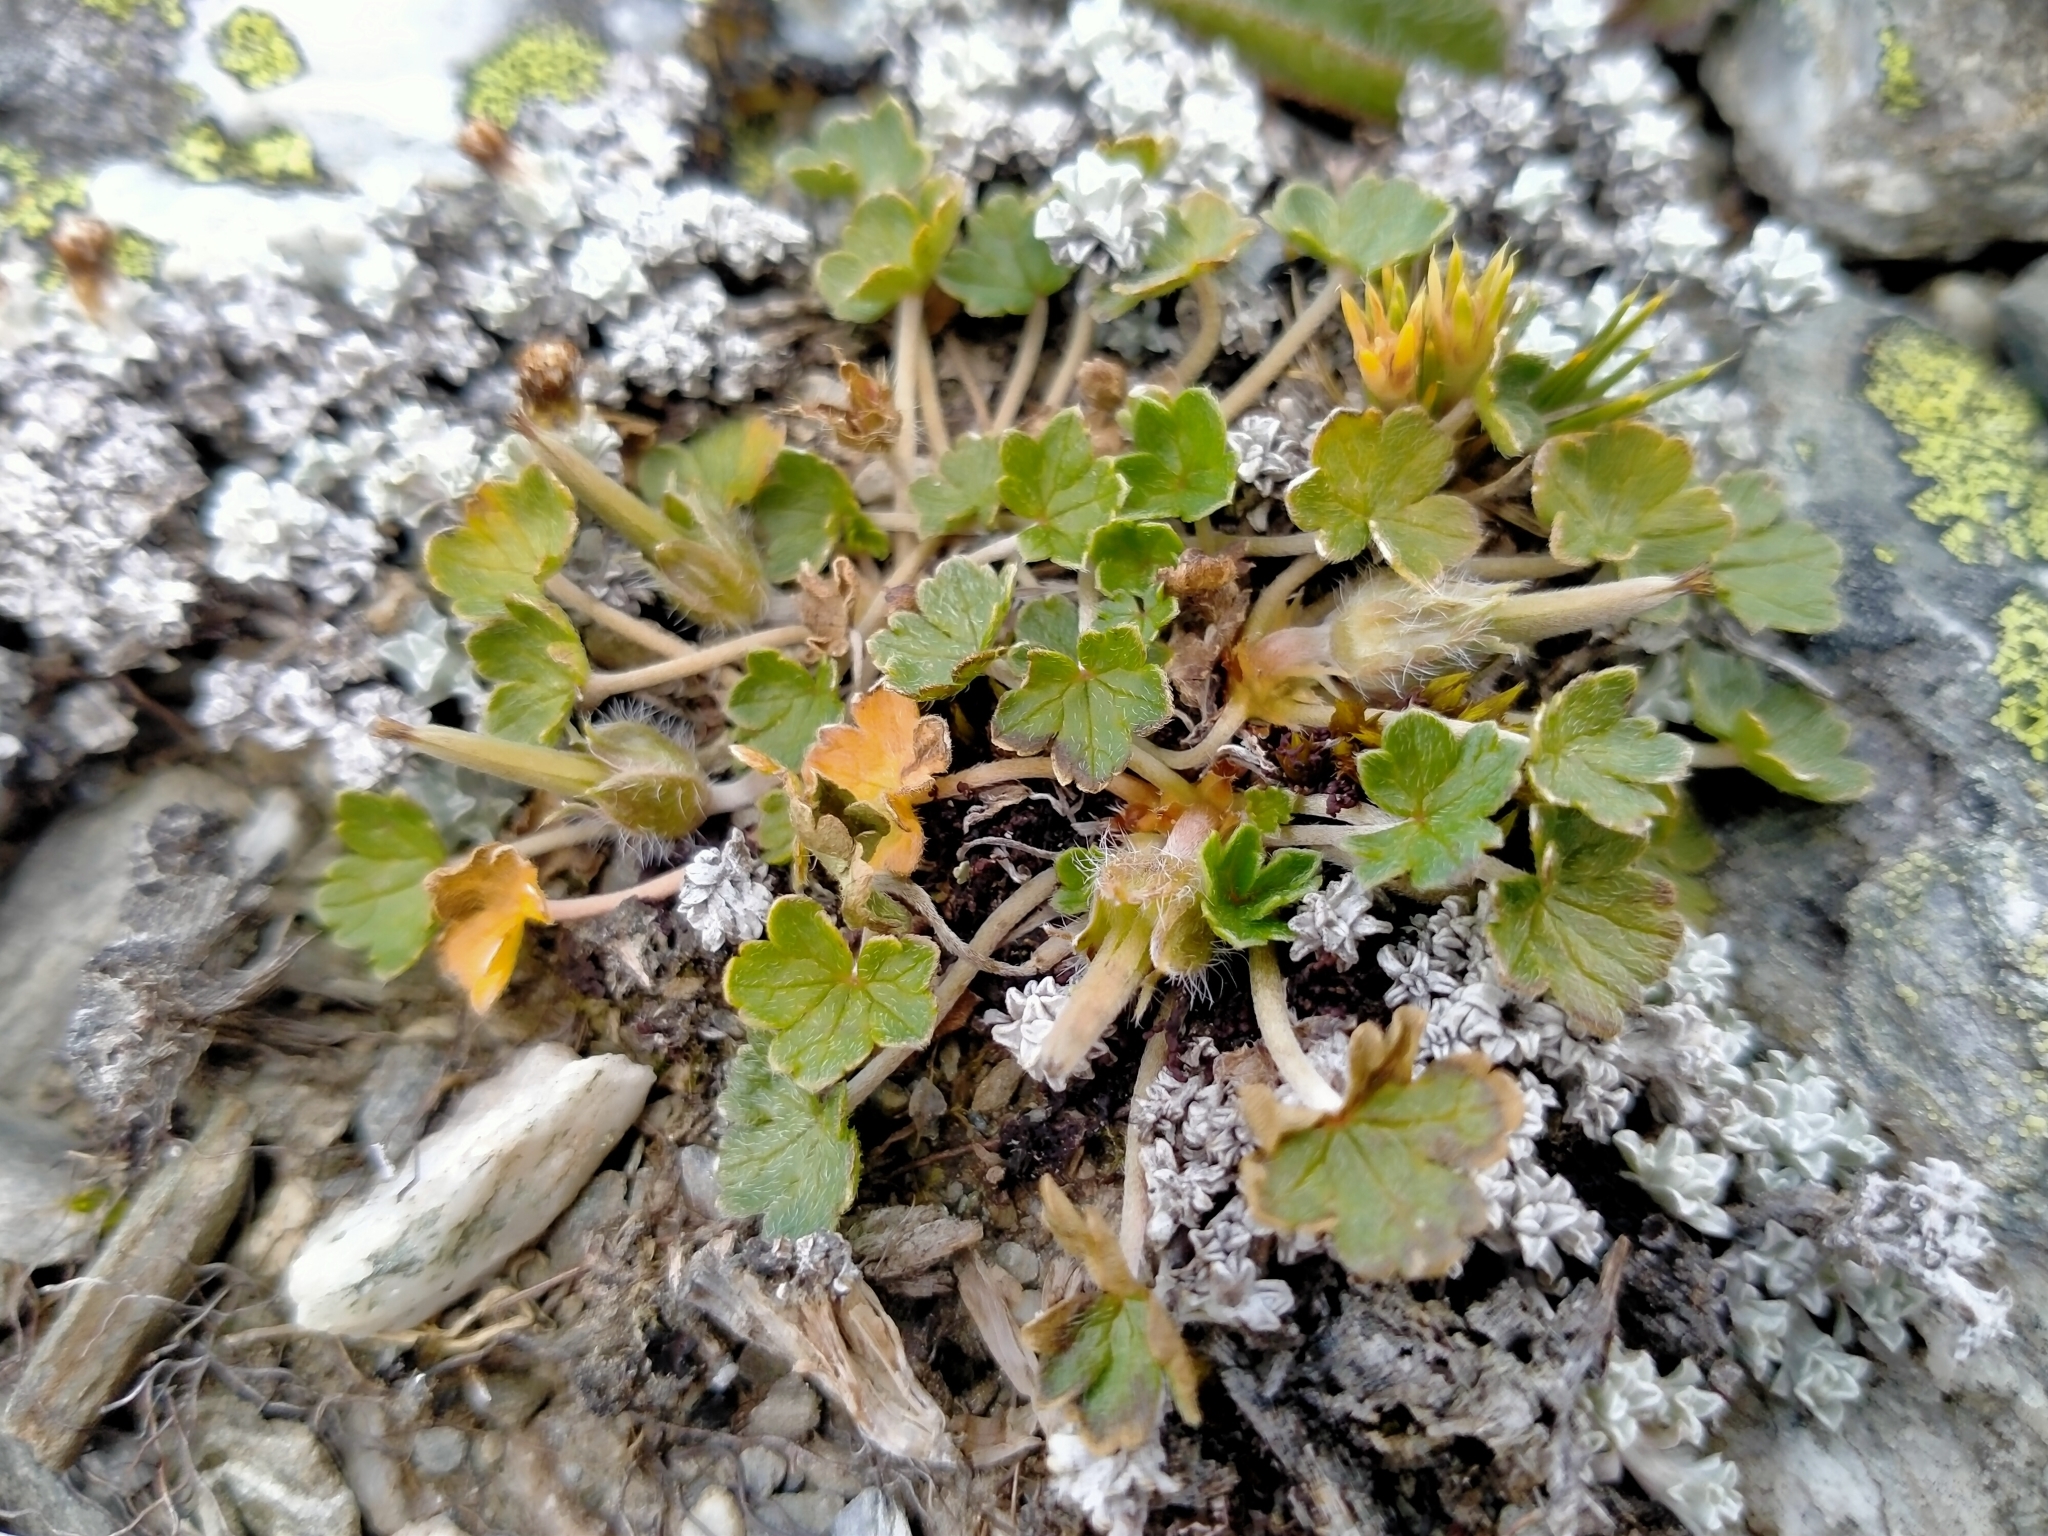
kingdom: Plantae
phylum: Tracheophyta
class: Magnoliopsida
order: Geraniales
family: Geraniaceae
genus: Geranium
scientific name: Geranium brevicaule
